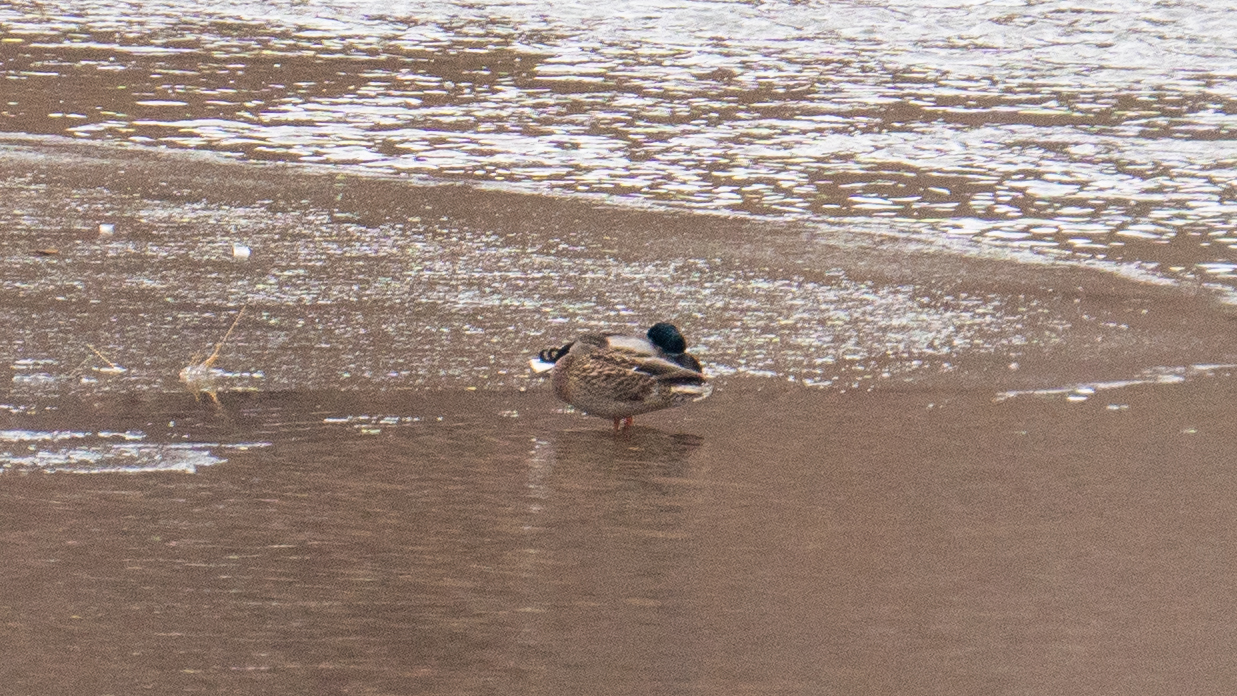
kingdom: Animalia
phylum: Chordata
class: Aves
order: Anseriformes
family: Anatidae
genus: Anas
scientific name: Anas platyrhynchos
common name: Mallard
